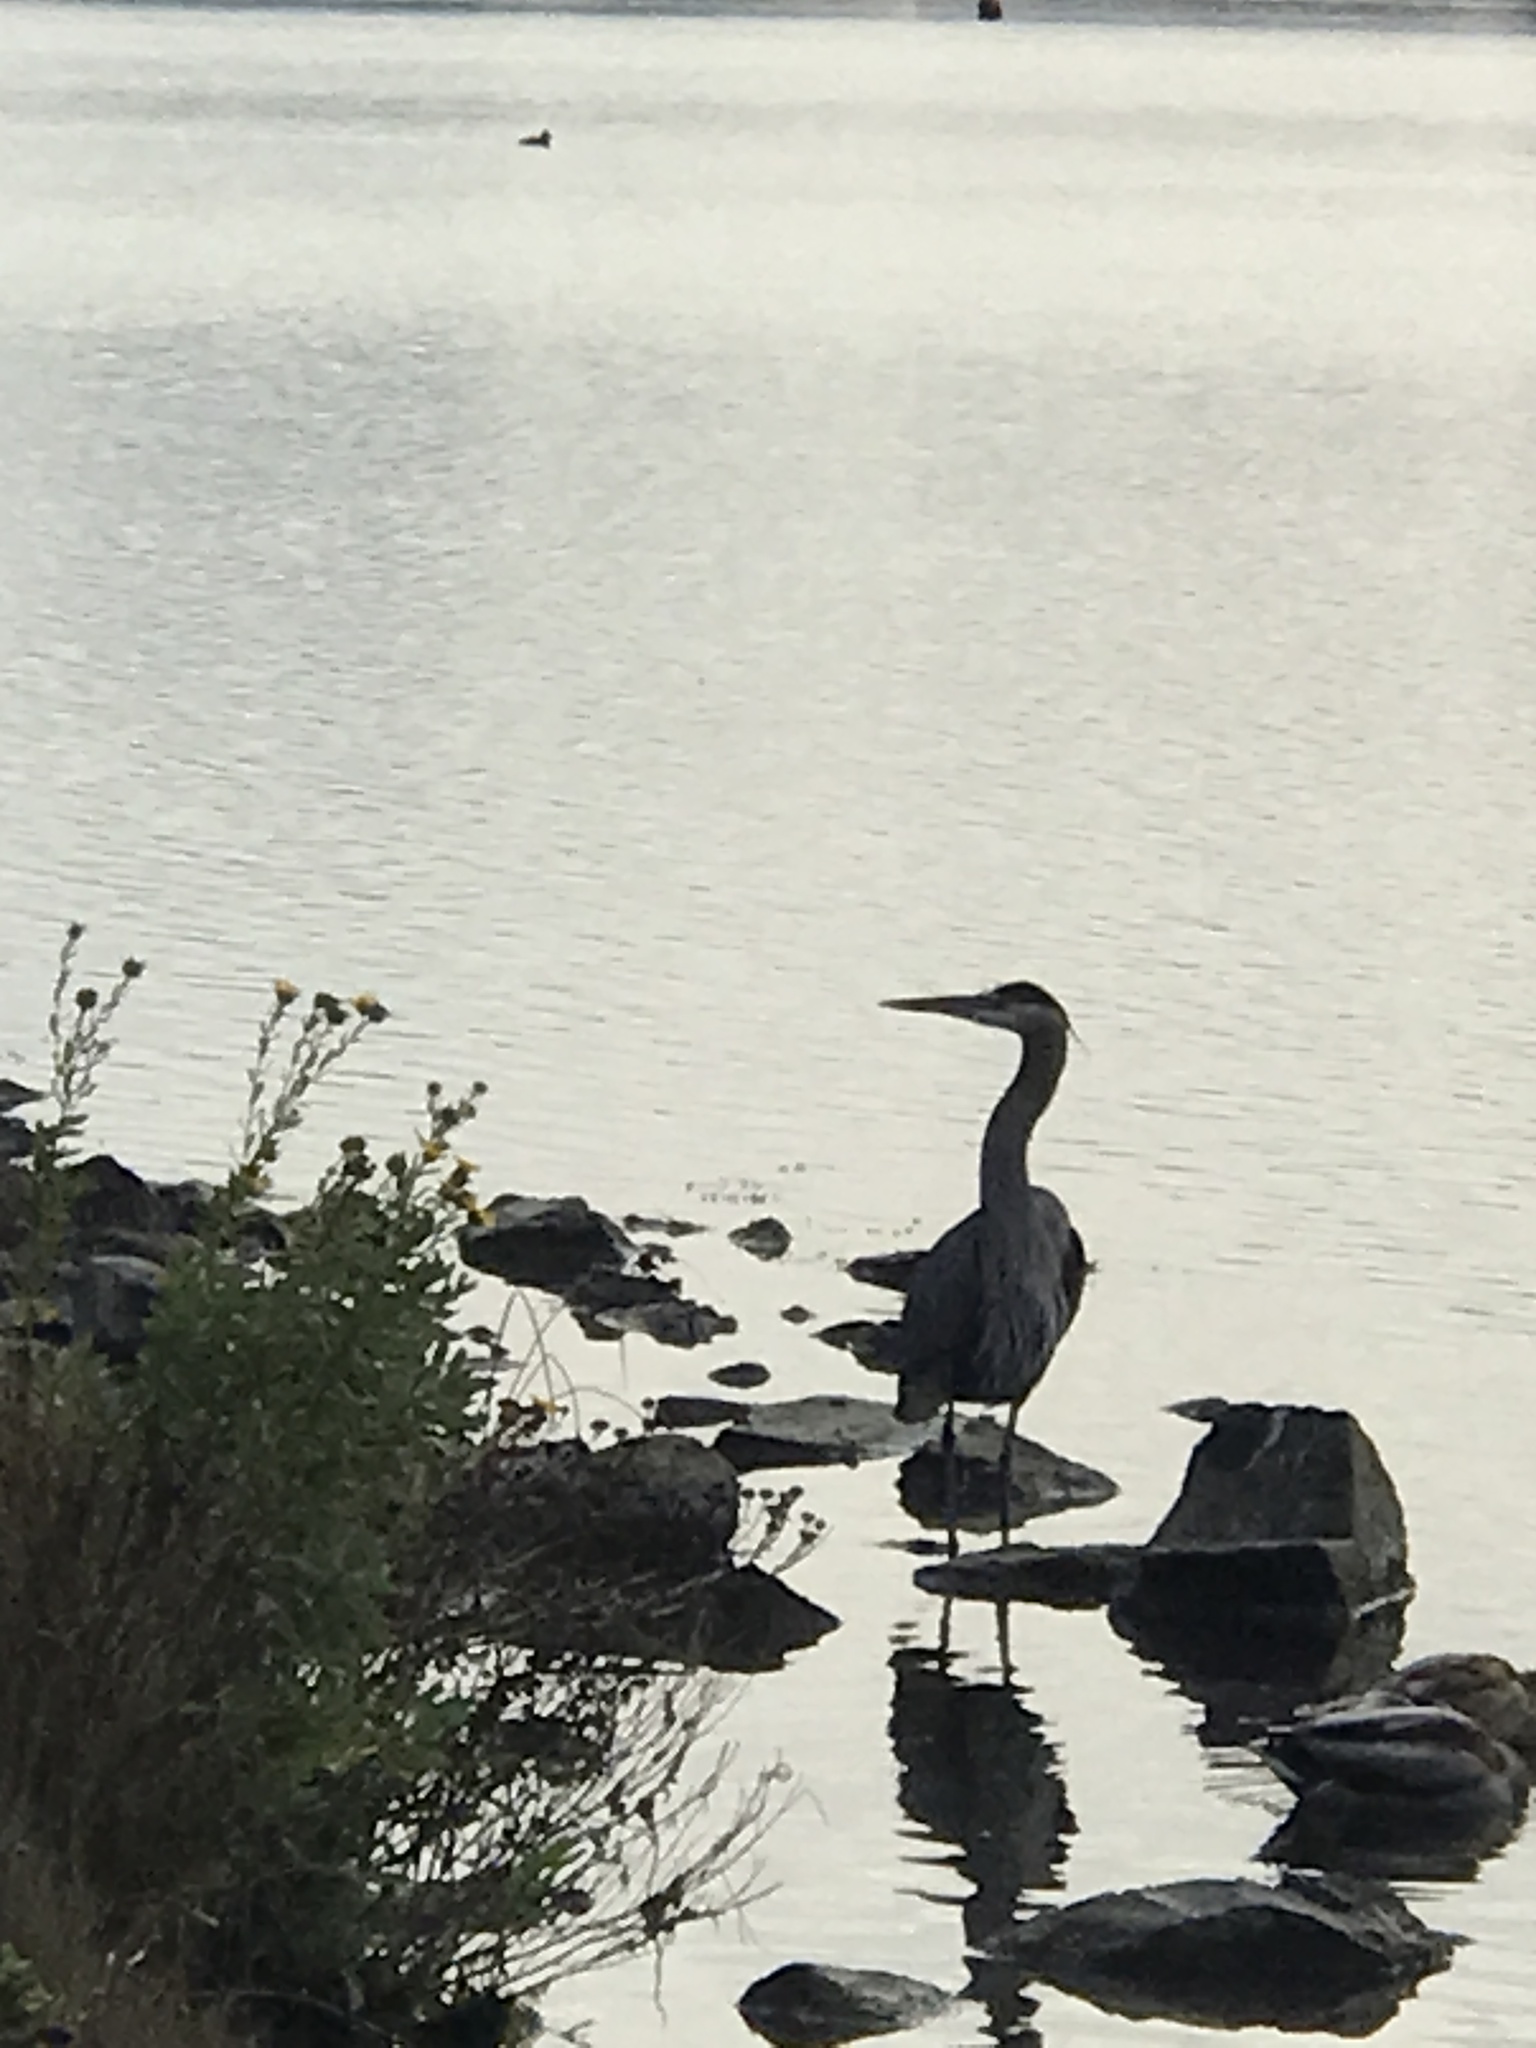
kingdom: Animalia
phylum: Chordata
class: Aves
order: Pelecaniformes
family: Ardeidae
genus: Ardea
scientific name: Ardea herodias
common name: Great blue heron
